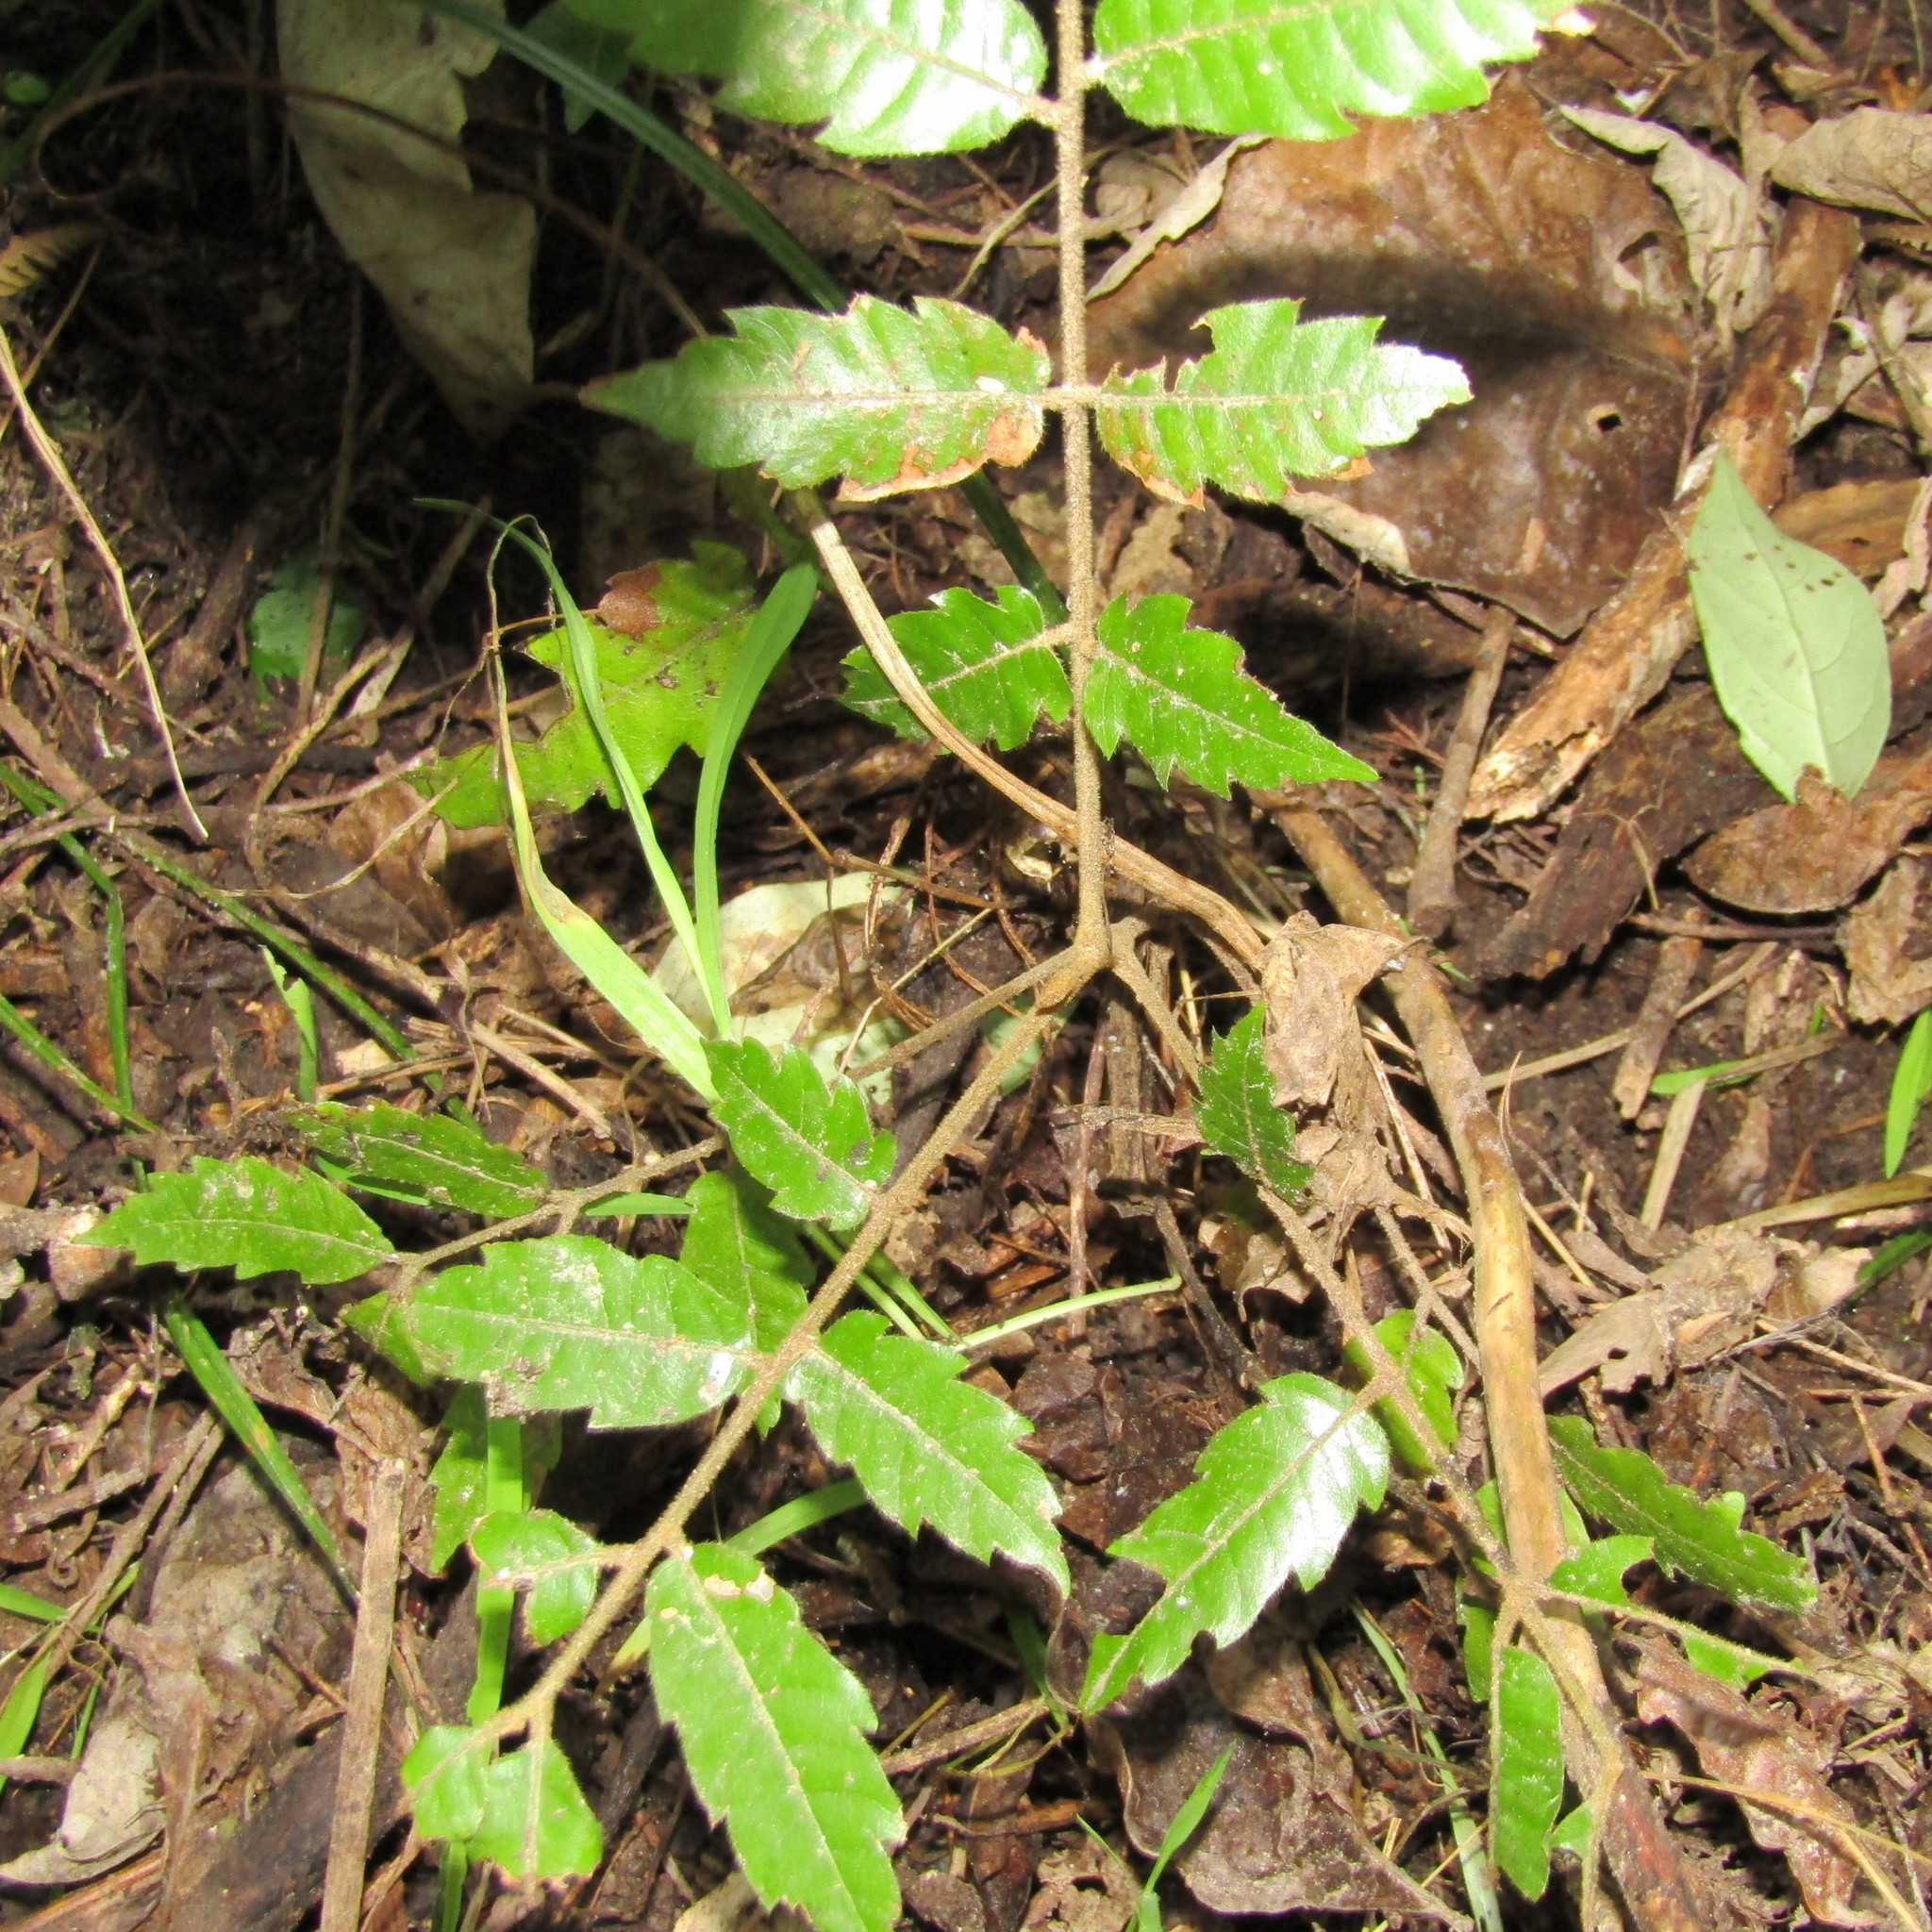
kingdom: Plantae
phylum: Tracheophyta
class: Magnoliopsida
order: Sapindales
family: Sapindaceae
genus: Alectryon
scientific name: Alectryon excelsus
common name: Three kings titoki
